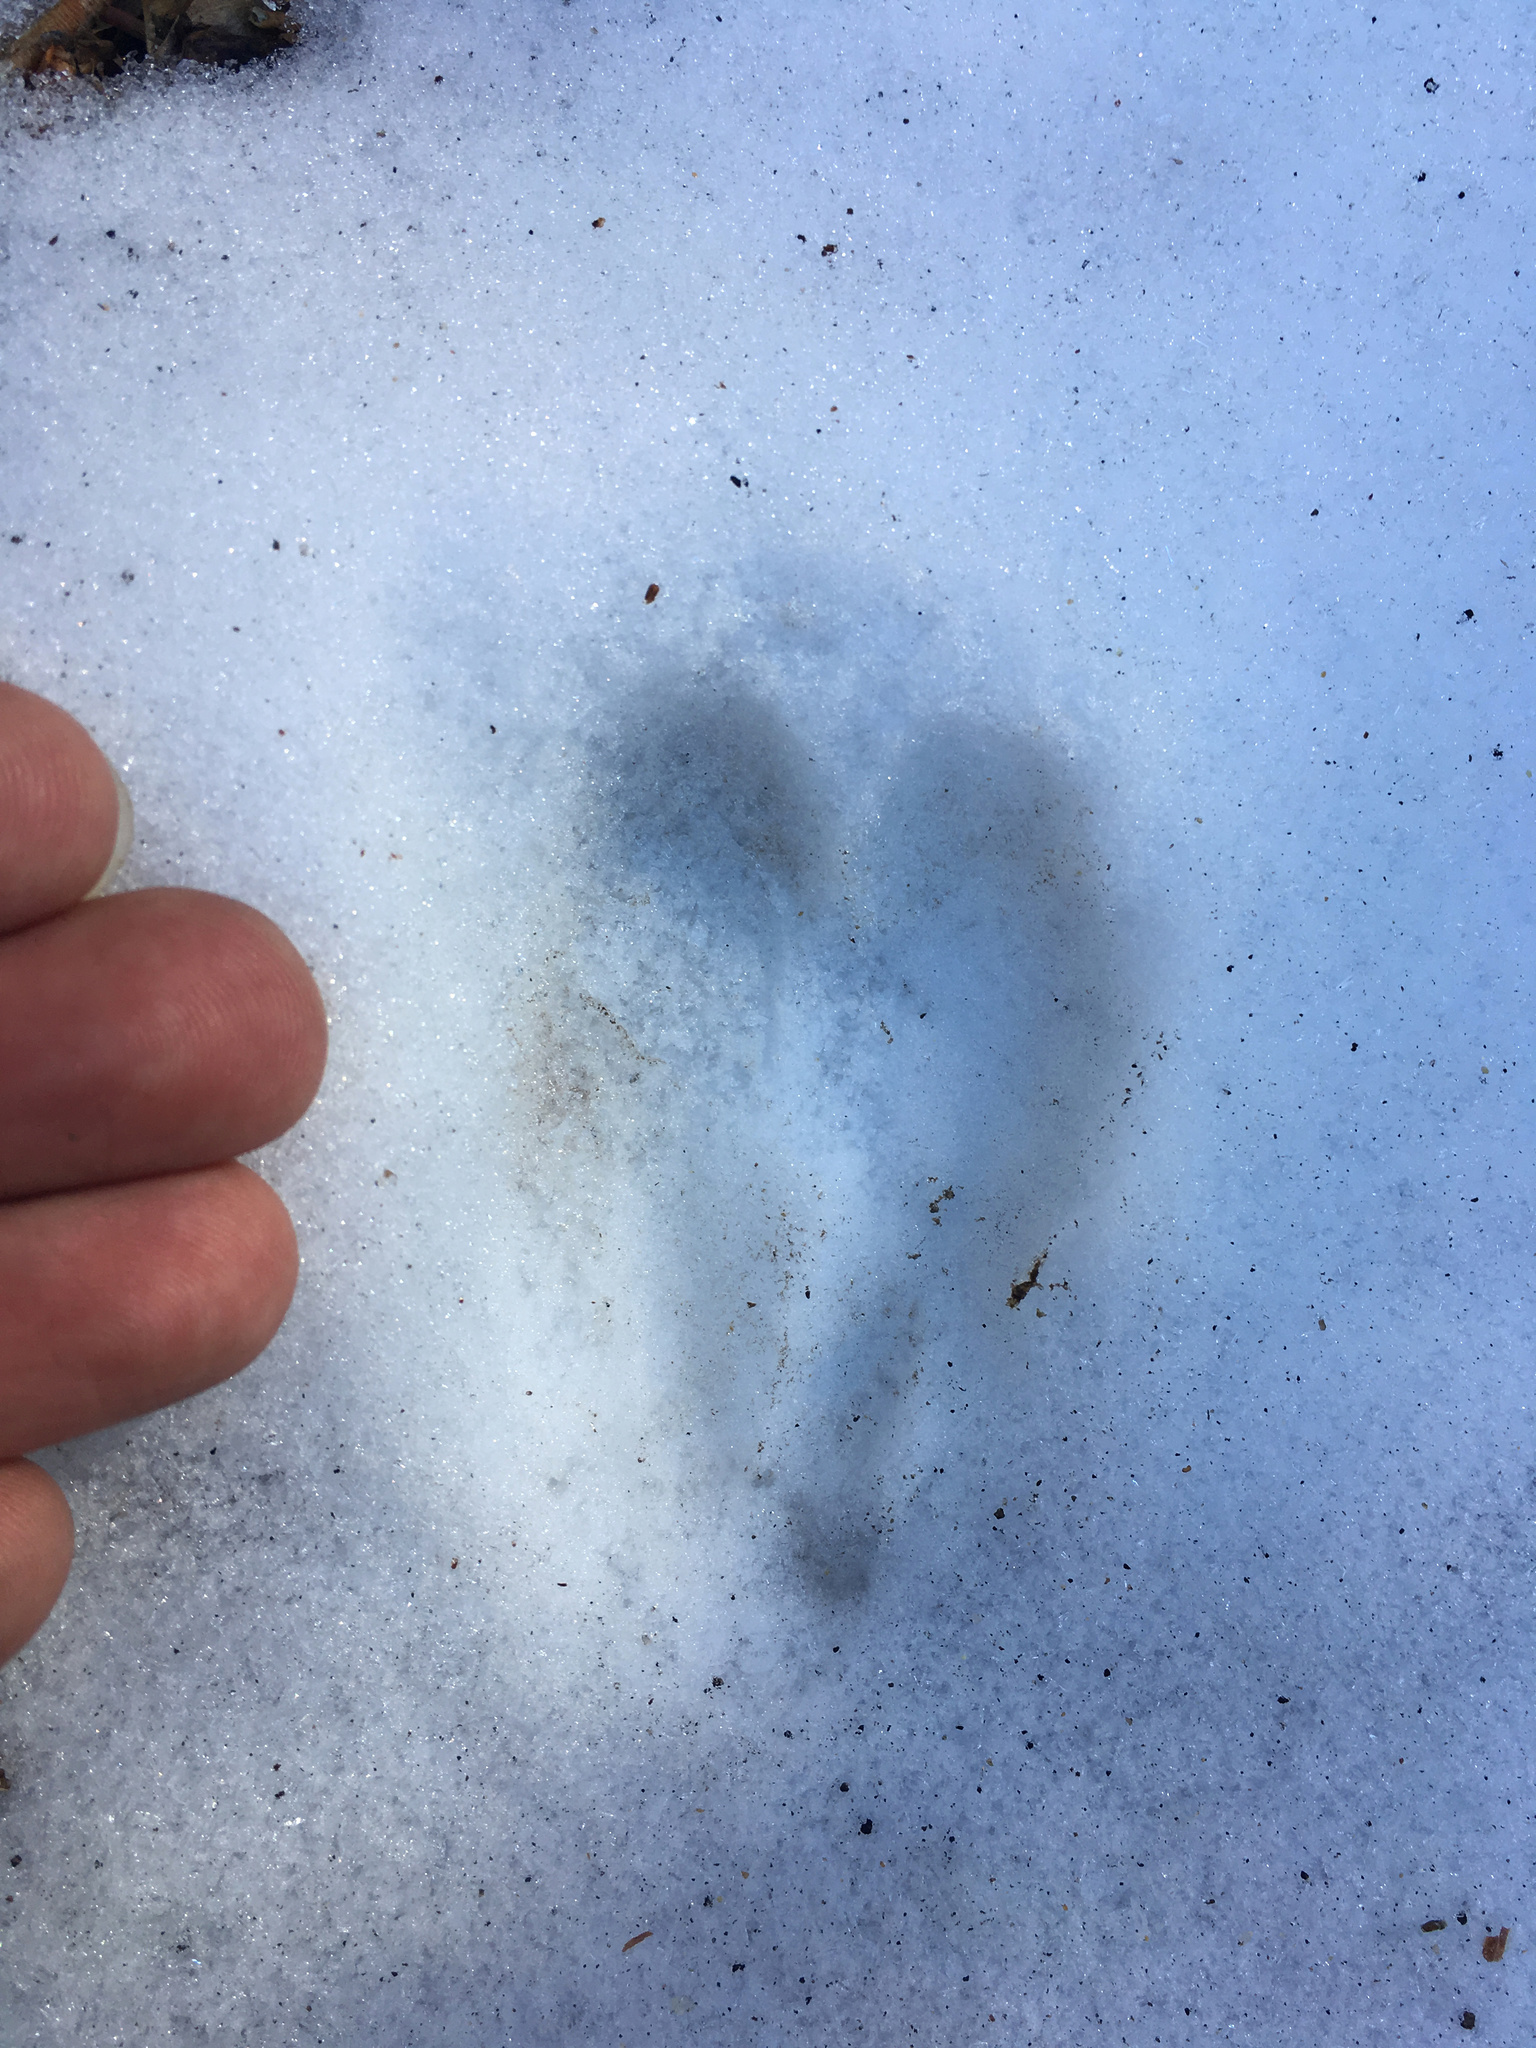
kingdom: Animalia
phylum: Chordata
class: Mammalia
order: Artiodactyla
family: Cervidae
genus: Odocoileus
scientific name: Odocoileus hemionus
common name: Mule deer
